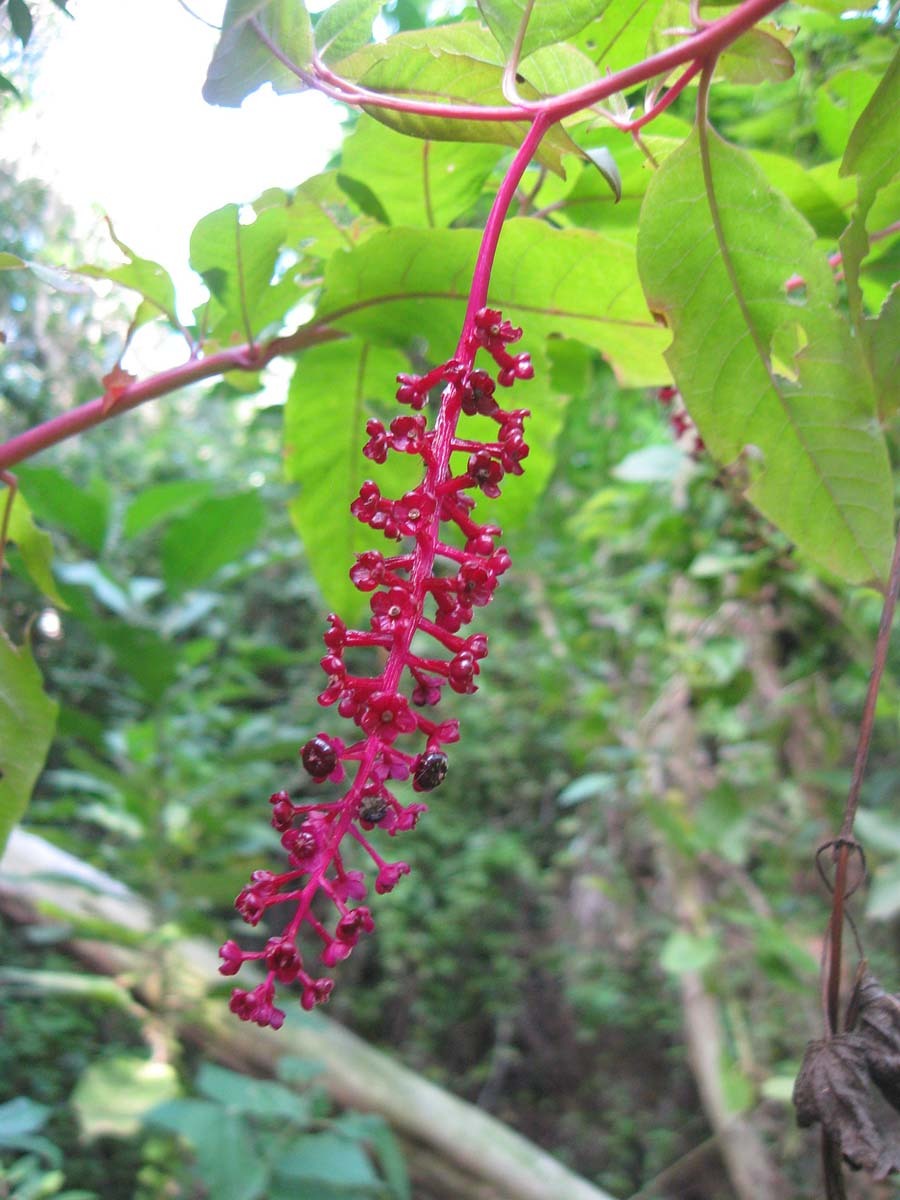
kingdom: Plantae
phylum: Tracheophyta
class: Magnoliopsida
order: Caryophyllales
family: Phytolaccaceae
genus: Phytolacca
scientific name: Phytolacca americana
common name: American pokeweed
